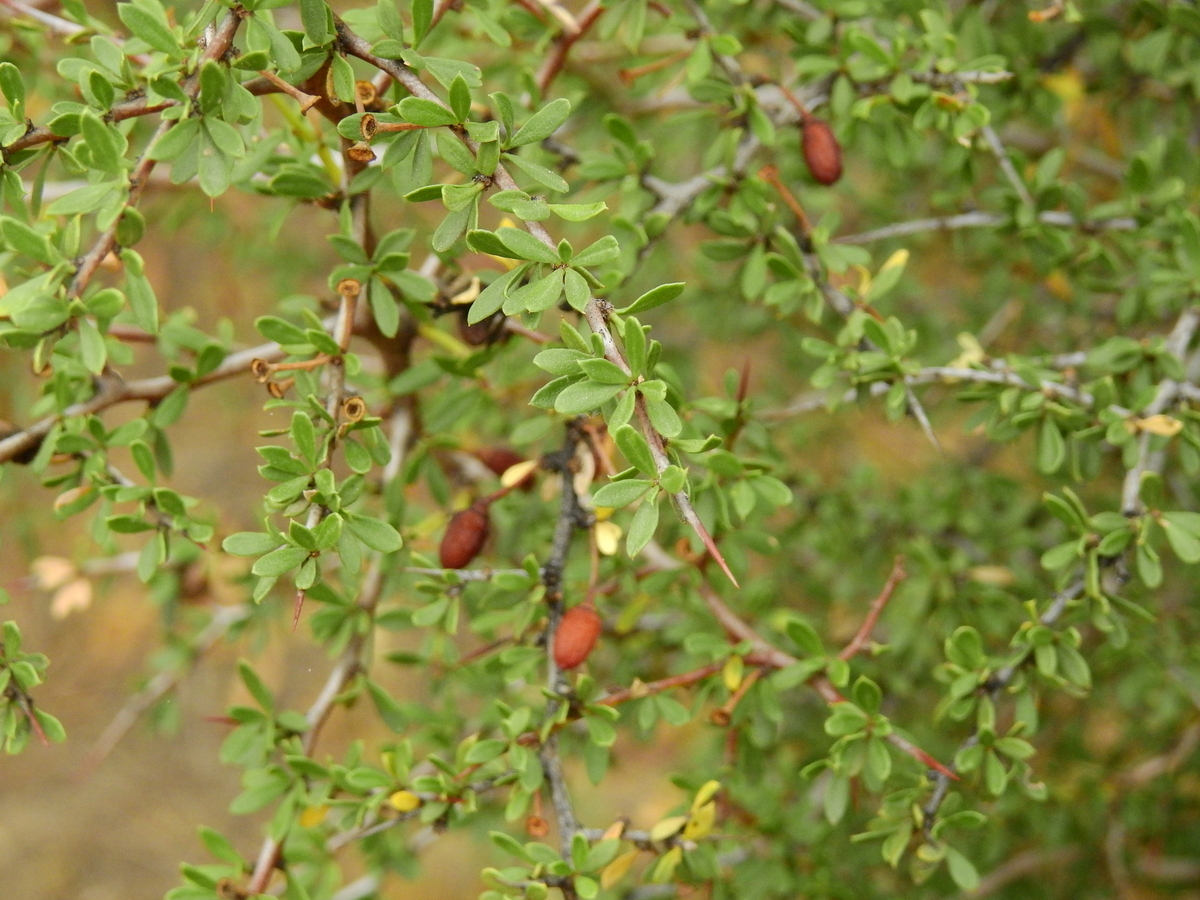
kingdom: Plantae
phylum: Tracheophyta
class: Magnoliopsida
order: Rosales
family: Rhamnaceae
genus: Condalia
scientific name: Condalia microphylla
